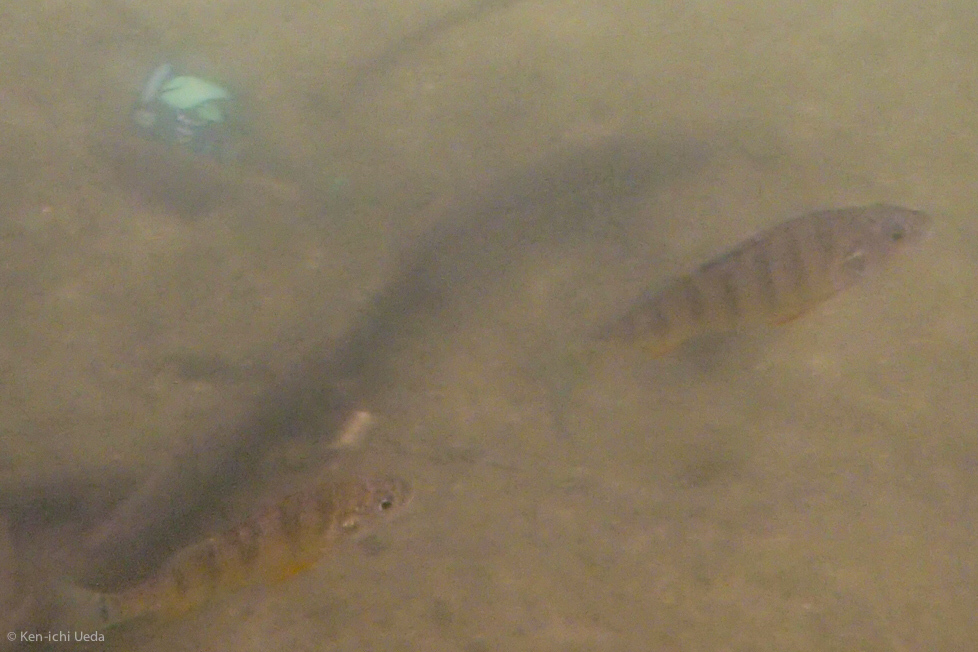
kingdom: Animalia
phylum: Chordata
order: Perciformes
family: Percidae
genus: Perca
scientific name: Perca flavescens
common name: Yellow perch
